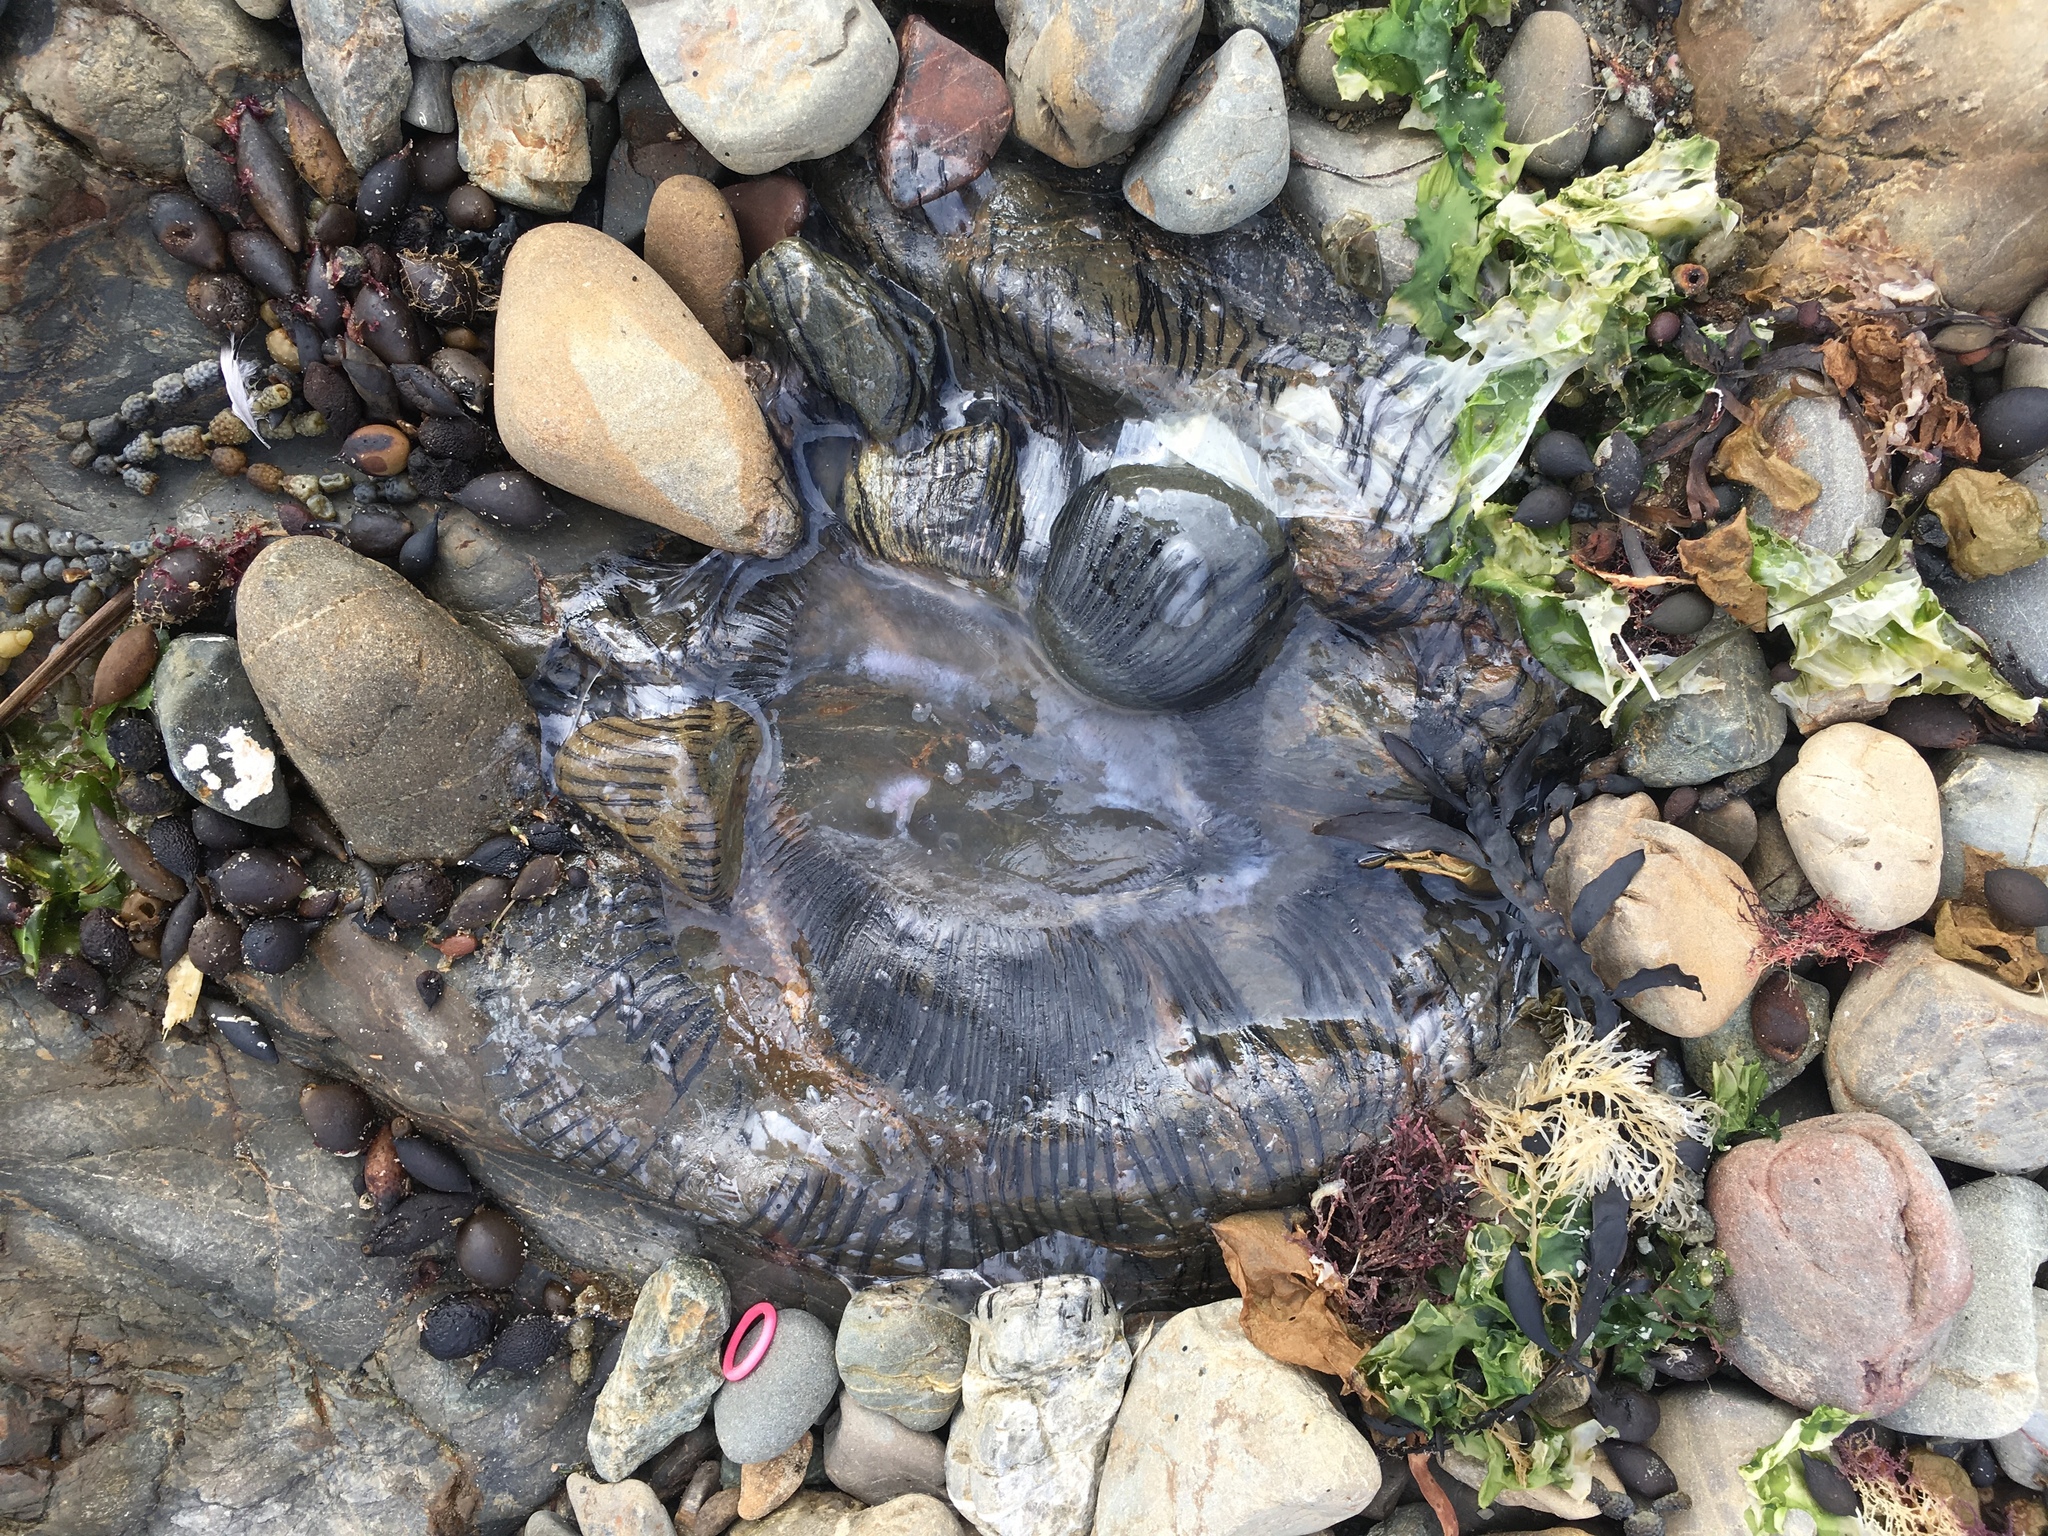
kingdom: Animalia
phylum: Cnidaria
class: Hydrozoa
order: Leptothecata
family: Aequoreidae
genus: Aequorea
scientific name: Aequorea forskalea
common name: Many-ribbed jellyfish
